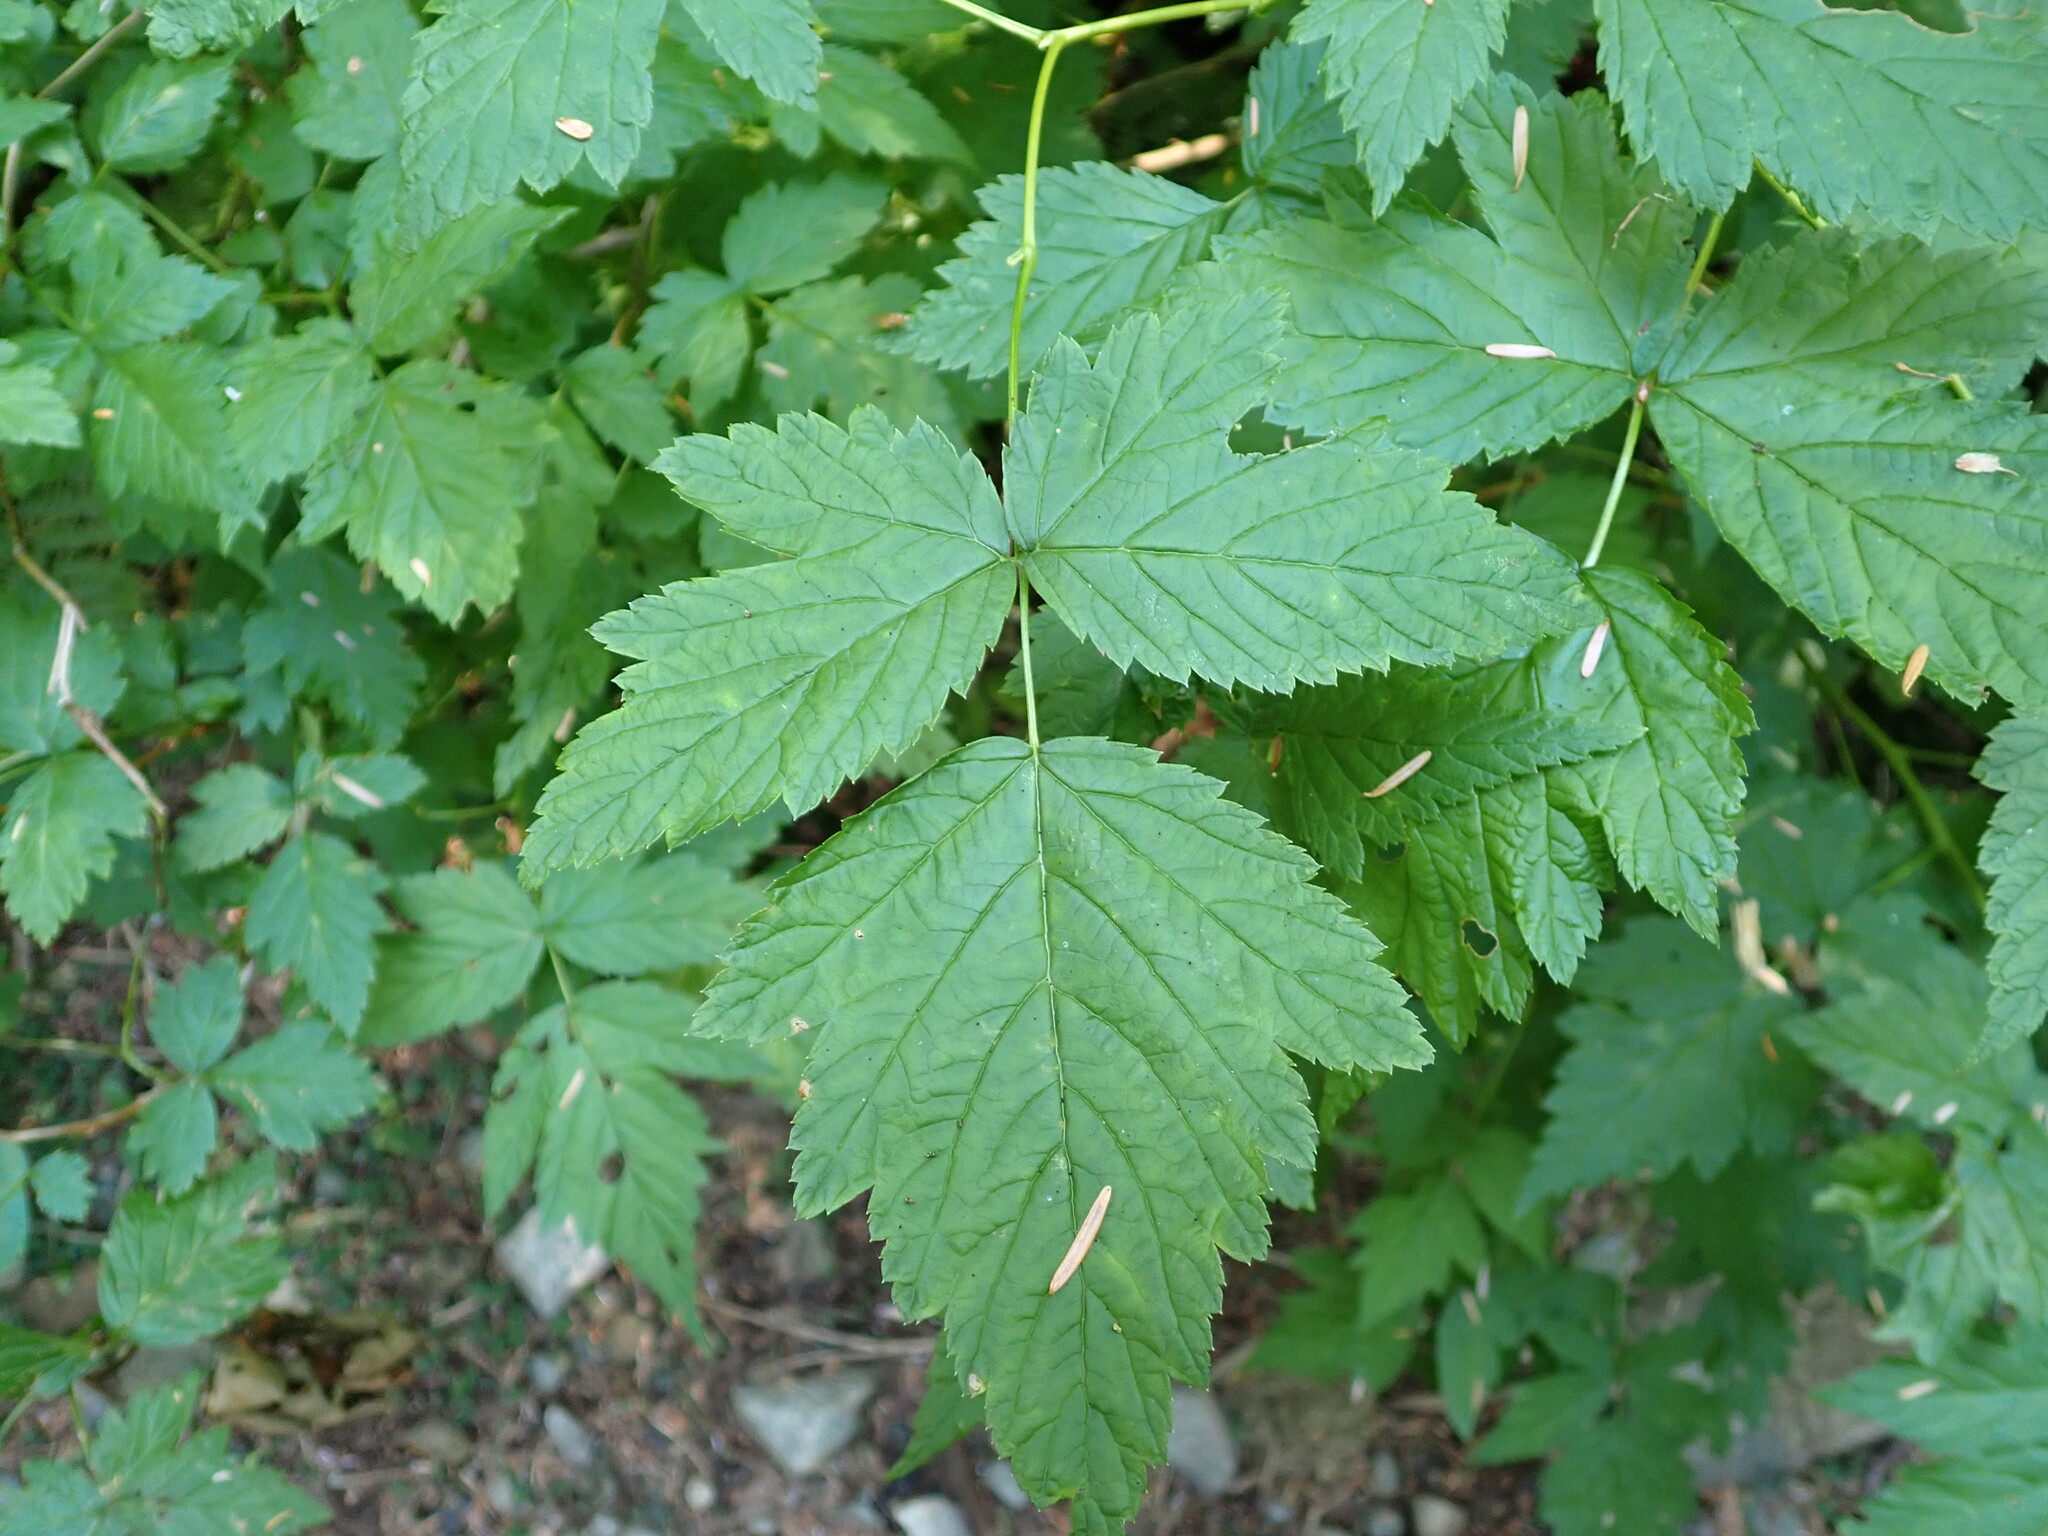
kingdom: Plantae
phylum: Tracheophyta
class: Magnoliopsida
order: Rosales
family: Rosaceae
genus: Rubus
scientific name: Rubus spectabilis
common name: Salmonberry
